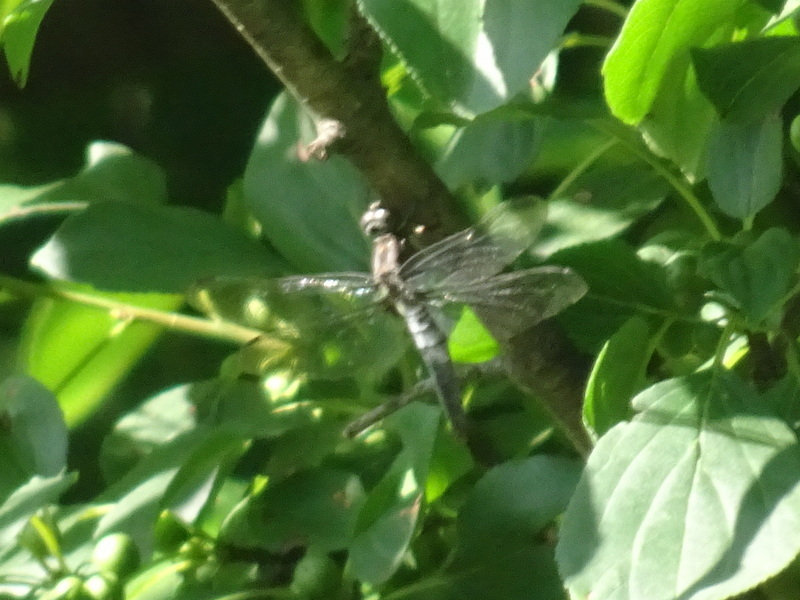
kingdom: Animalia
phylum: Arthropoda
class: Insecta
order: Odonata
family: Libellulidae
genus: Ladona
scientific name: Ladona julia
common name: Chalk-fronted corporal
